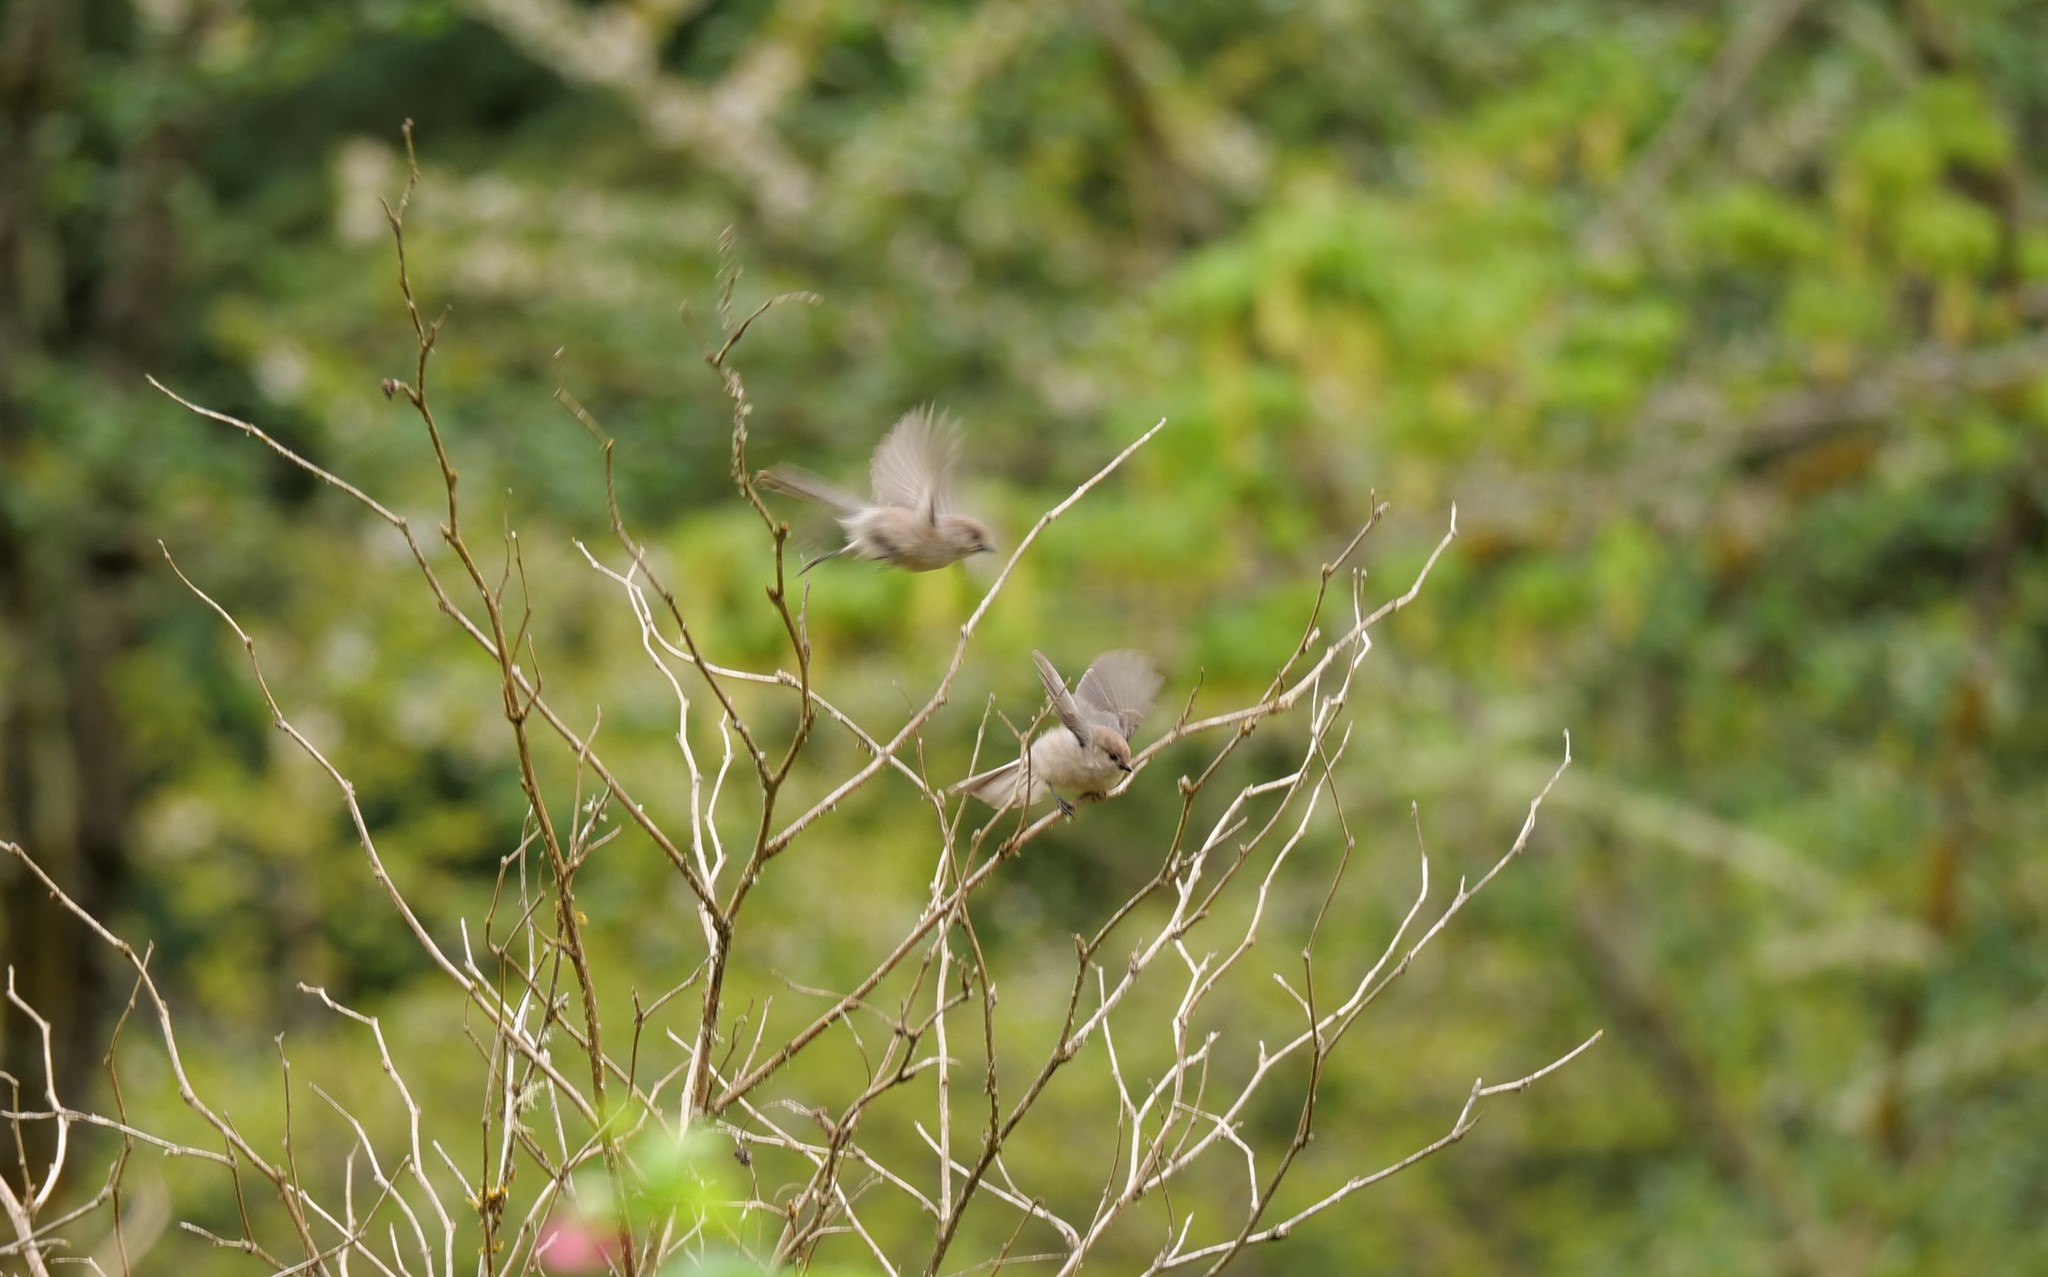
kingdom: Animalia
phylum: Chordata
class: Aves
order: Passeriformes
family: Aegithalidae
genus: Psaltriparus
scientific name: Psaltriparus minimus
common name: American bushtit
